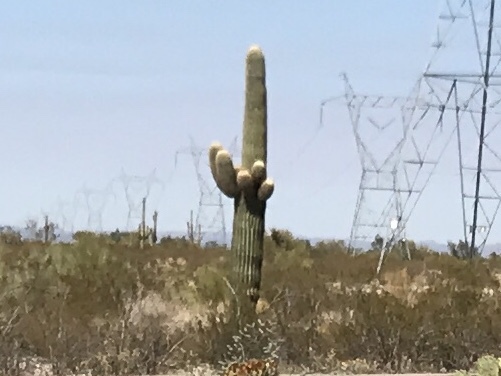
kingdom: Plantae
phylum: Tracheophyta
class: Magnoliopsida
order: Caryophyllales
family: Cactaceae
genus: Carnegiea
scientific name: Carnegiea gigantea
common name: Saguaro
